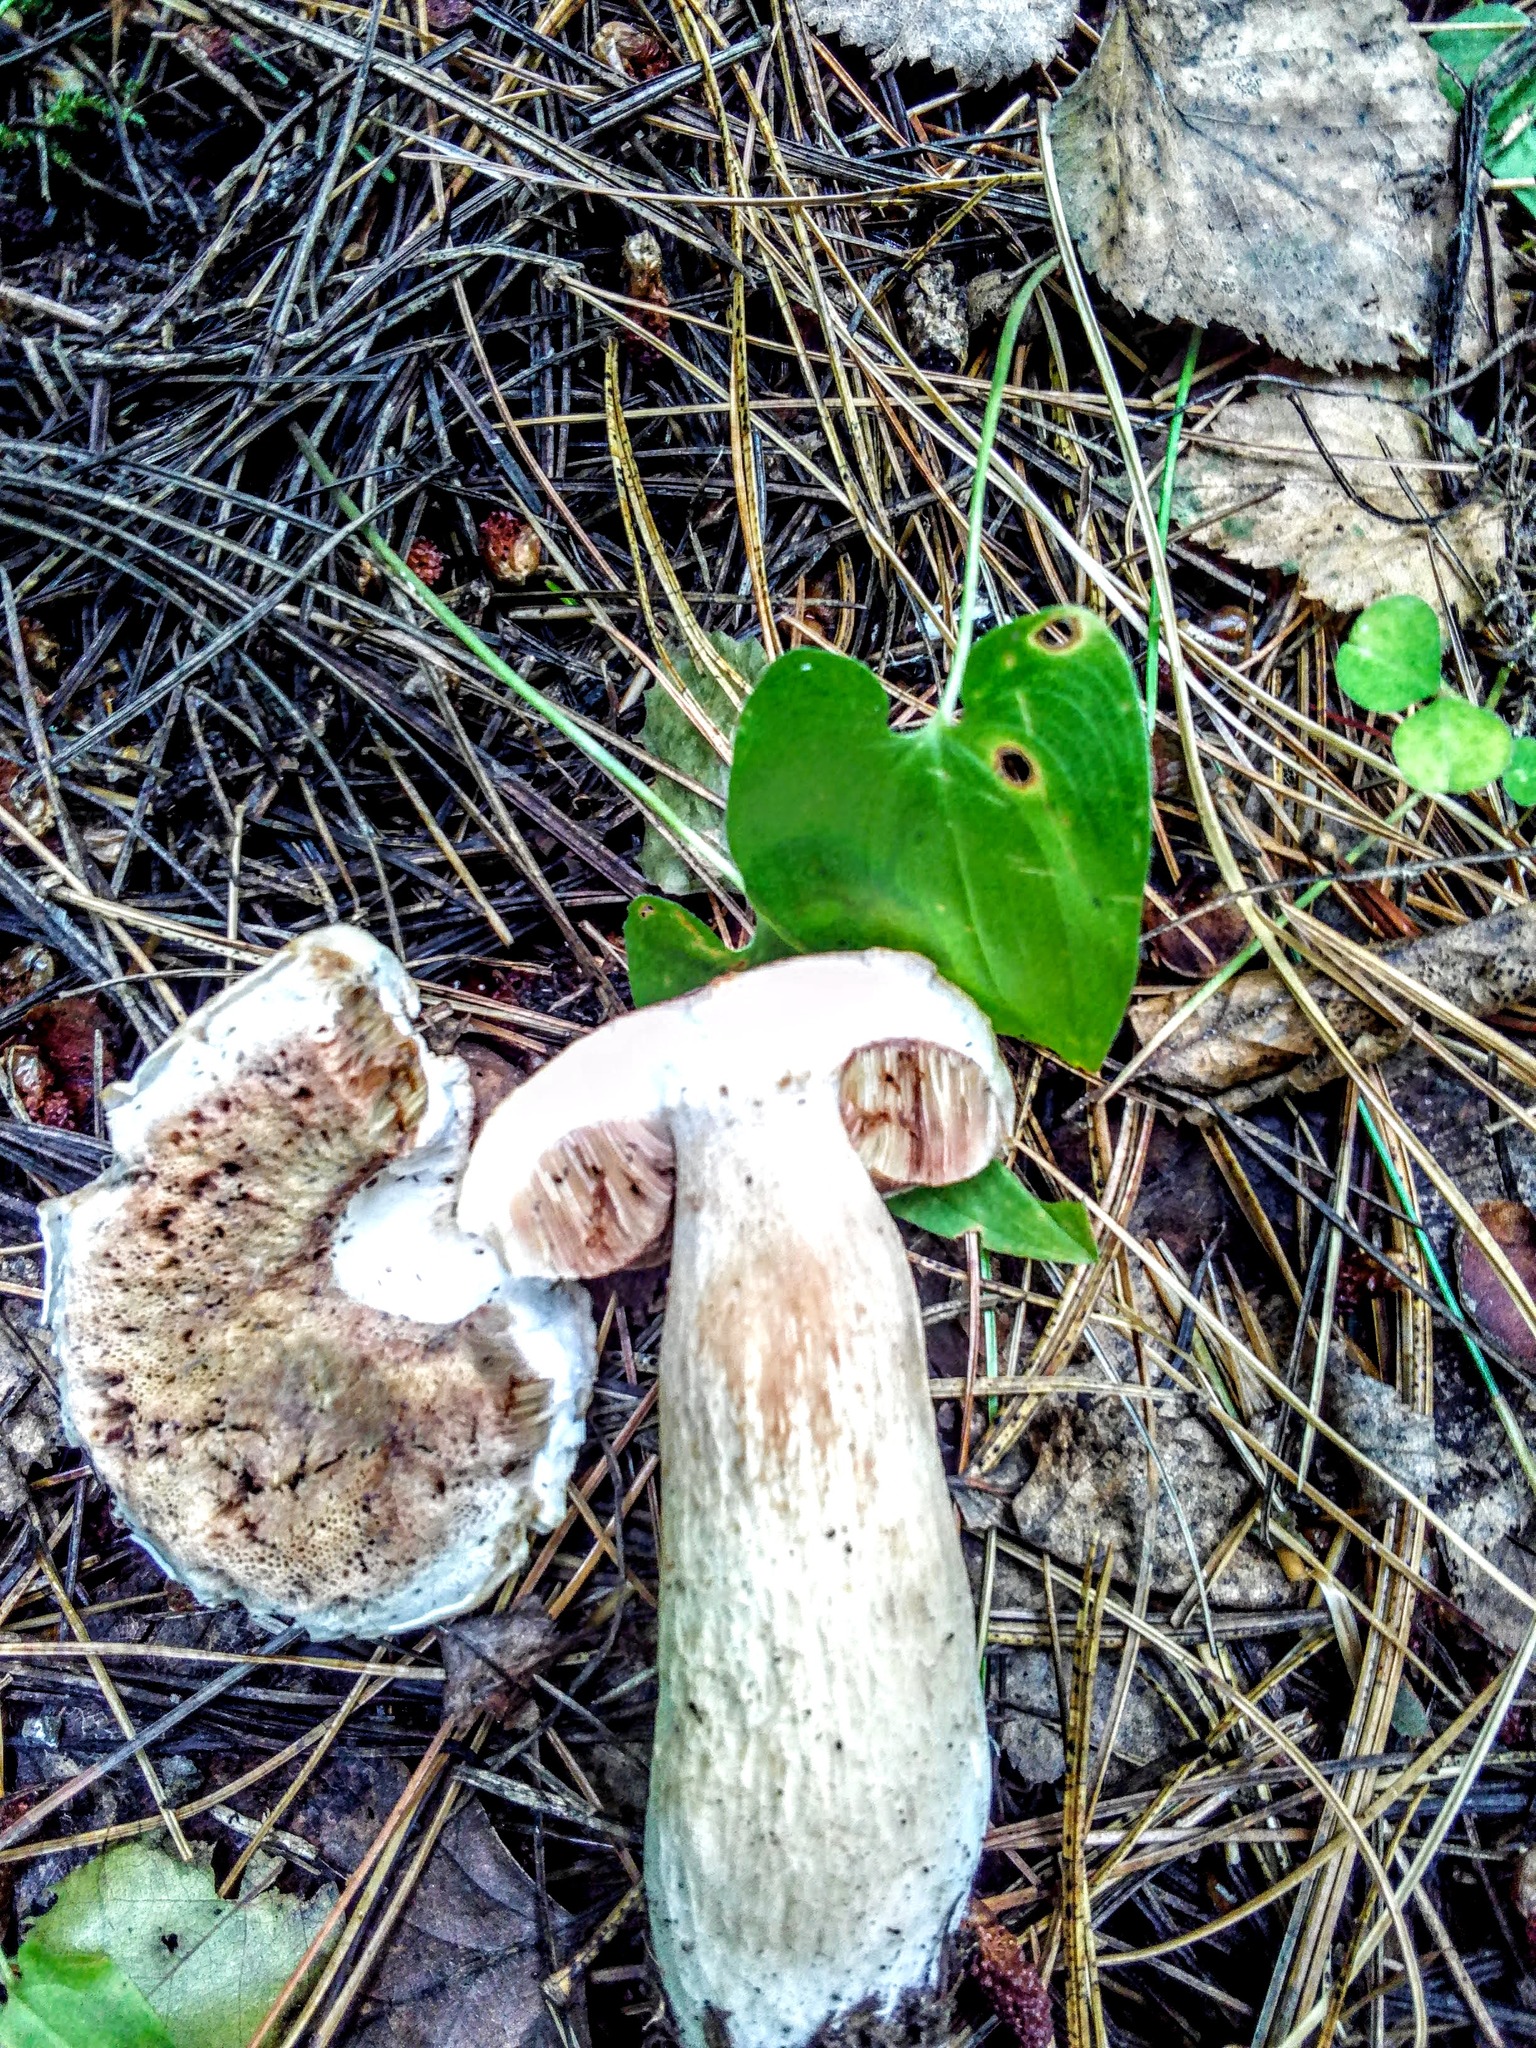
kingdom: Fungi
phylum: Basidiomycota
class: Agaricomycetes
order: Boletales
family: Boletaceae
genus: Boletus
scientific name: Boletus edulis
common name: Cep
